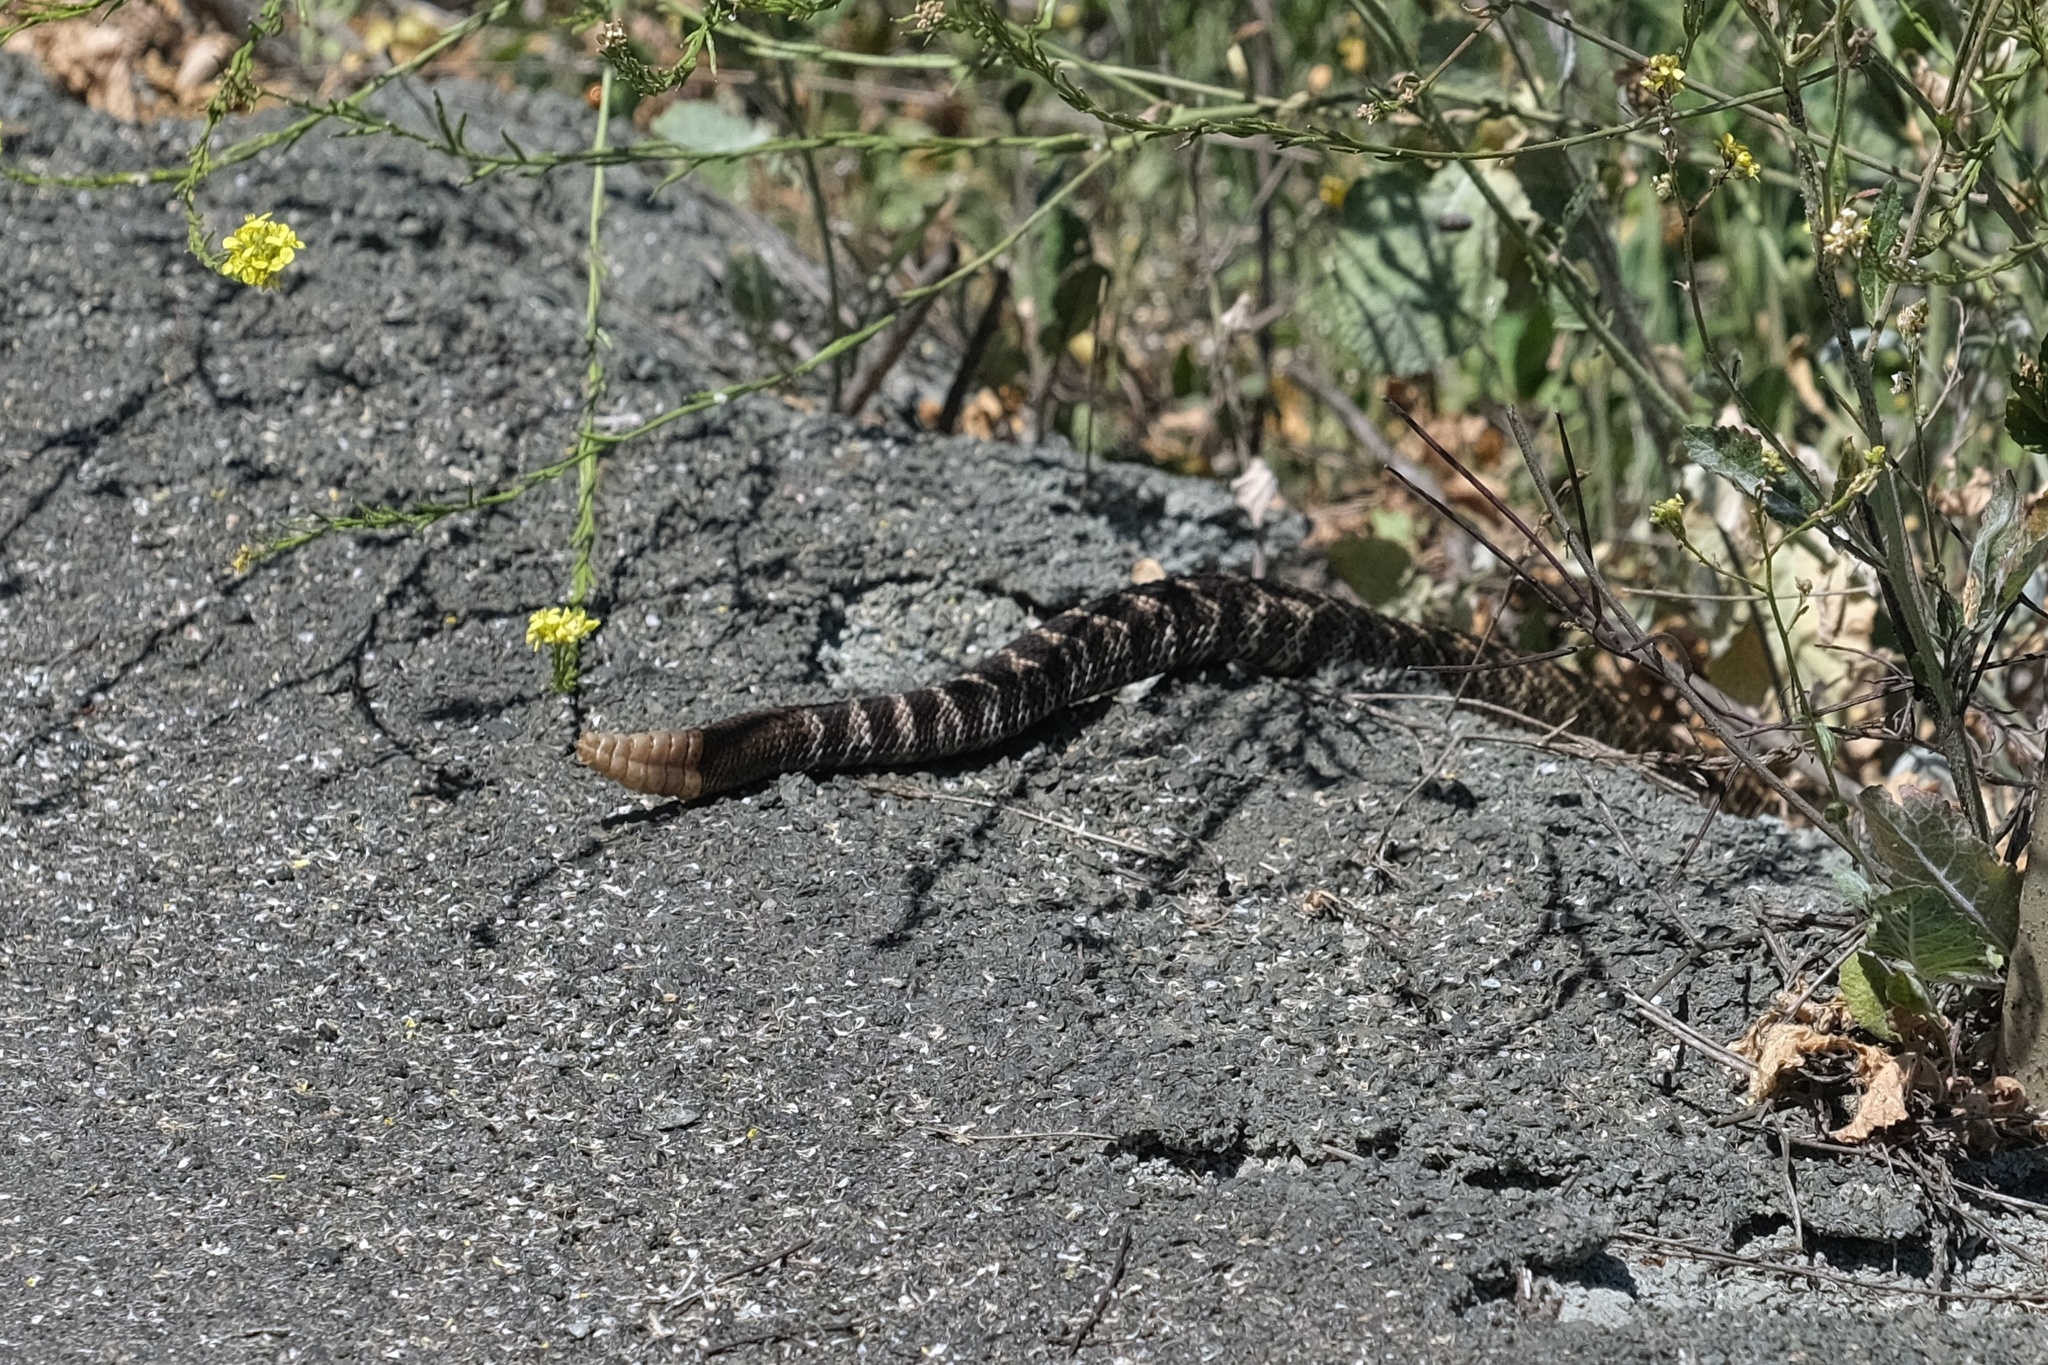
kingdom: Animalia
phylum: Chordata
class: Squamata
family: Viperidae
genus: Crotalus
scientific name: Crotalus oreganus
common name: Abyssus
